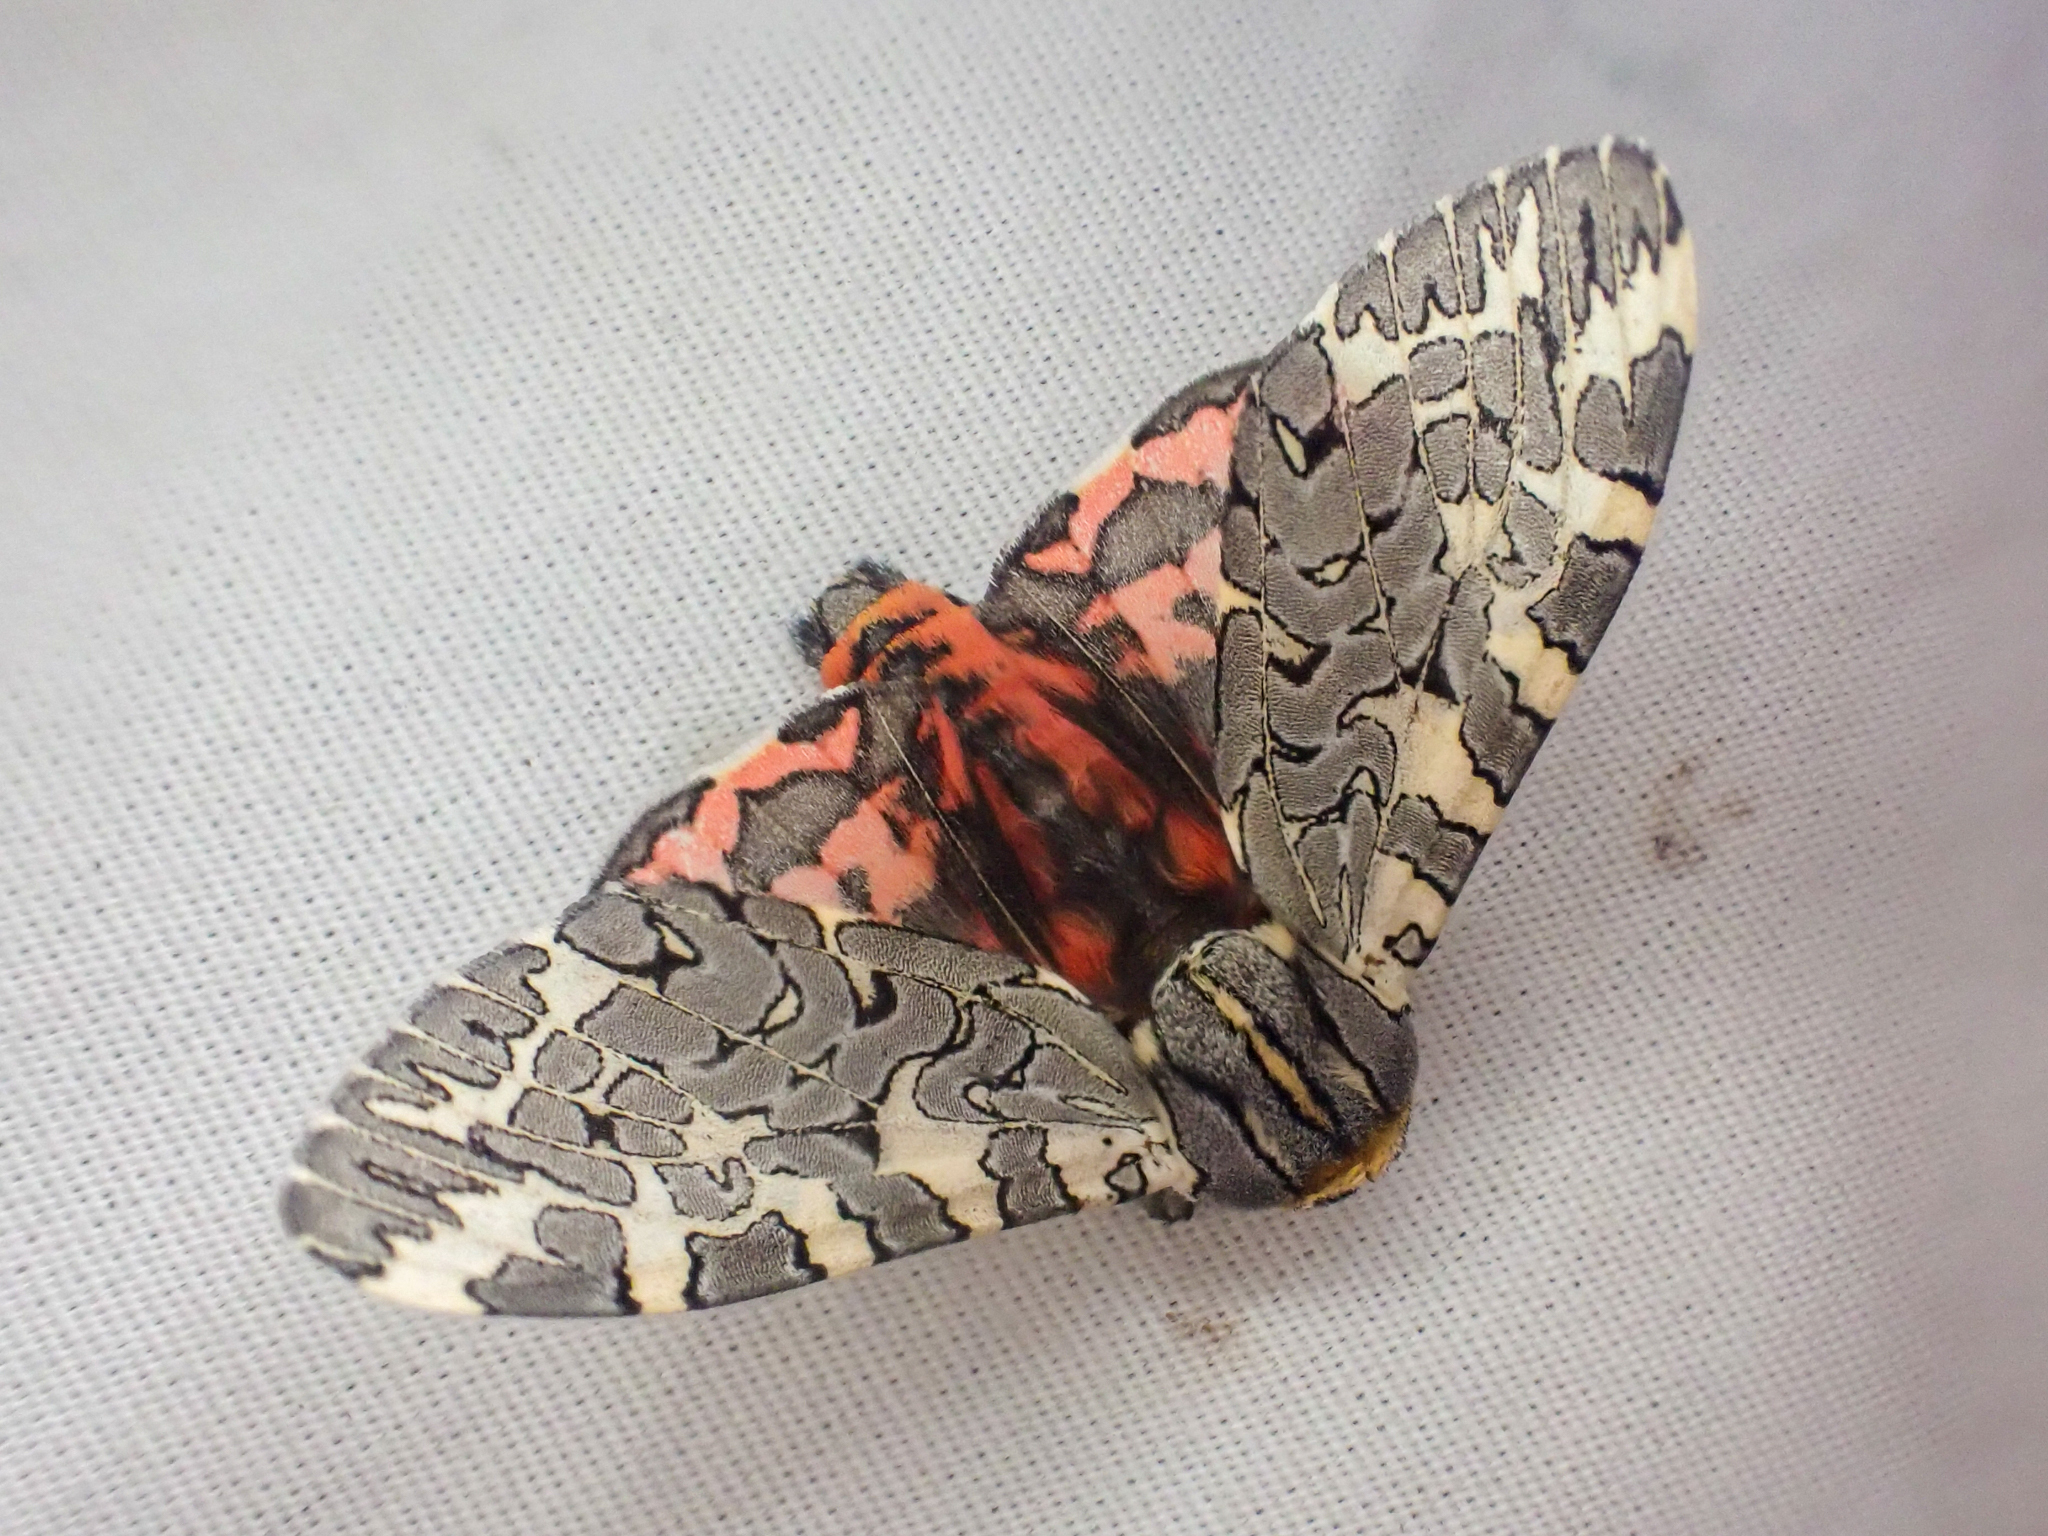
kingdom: Animalia
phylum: Arthropoda
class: Insecta
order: Lepidoptera
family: Erebidae
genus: Arachnis
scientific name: Arachnis picta
